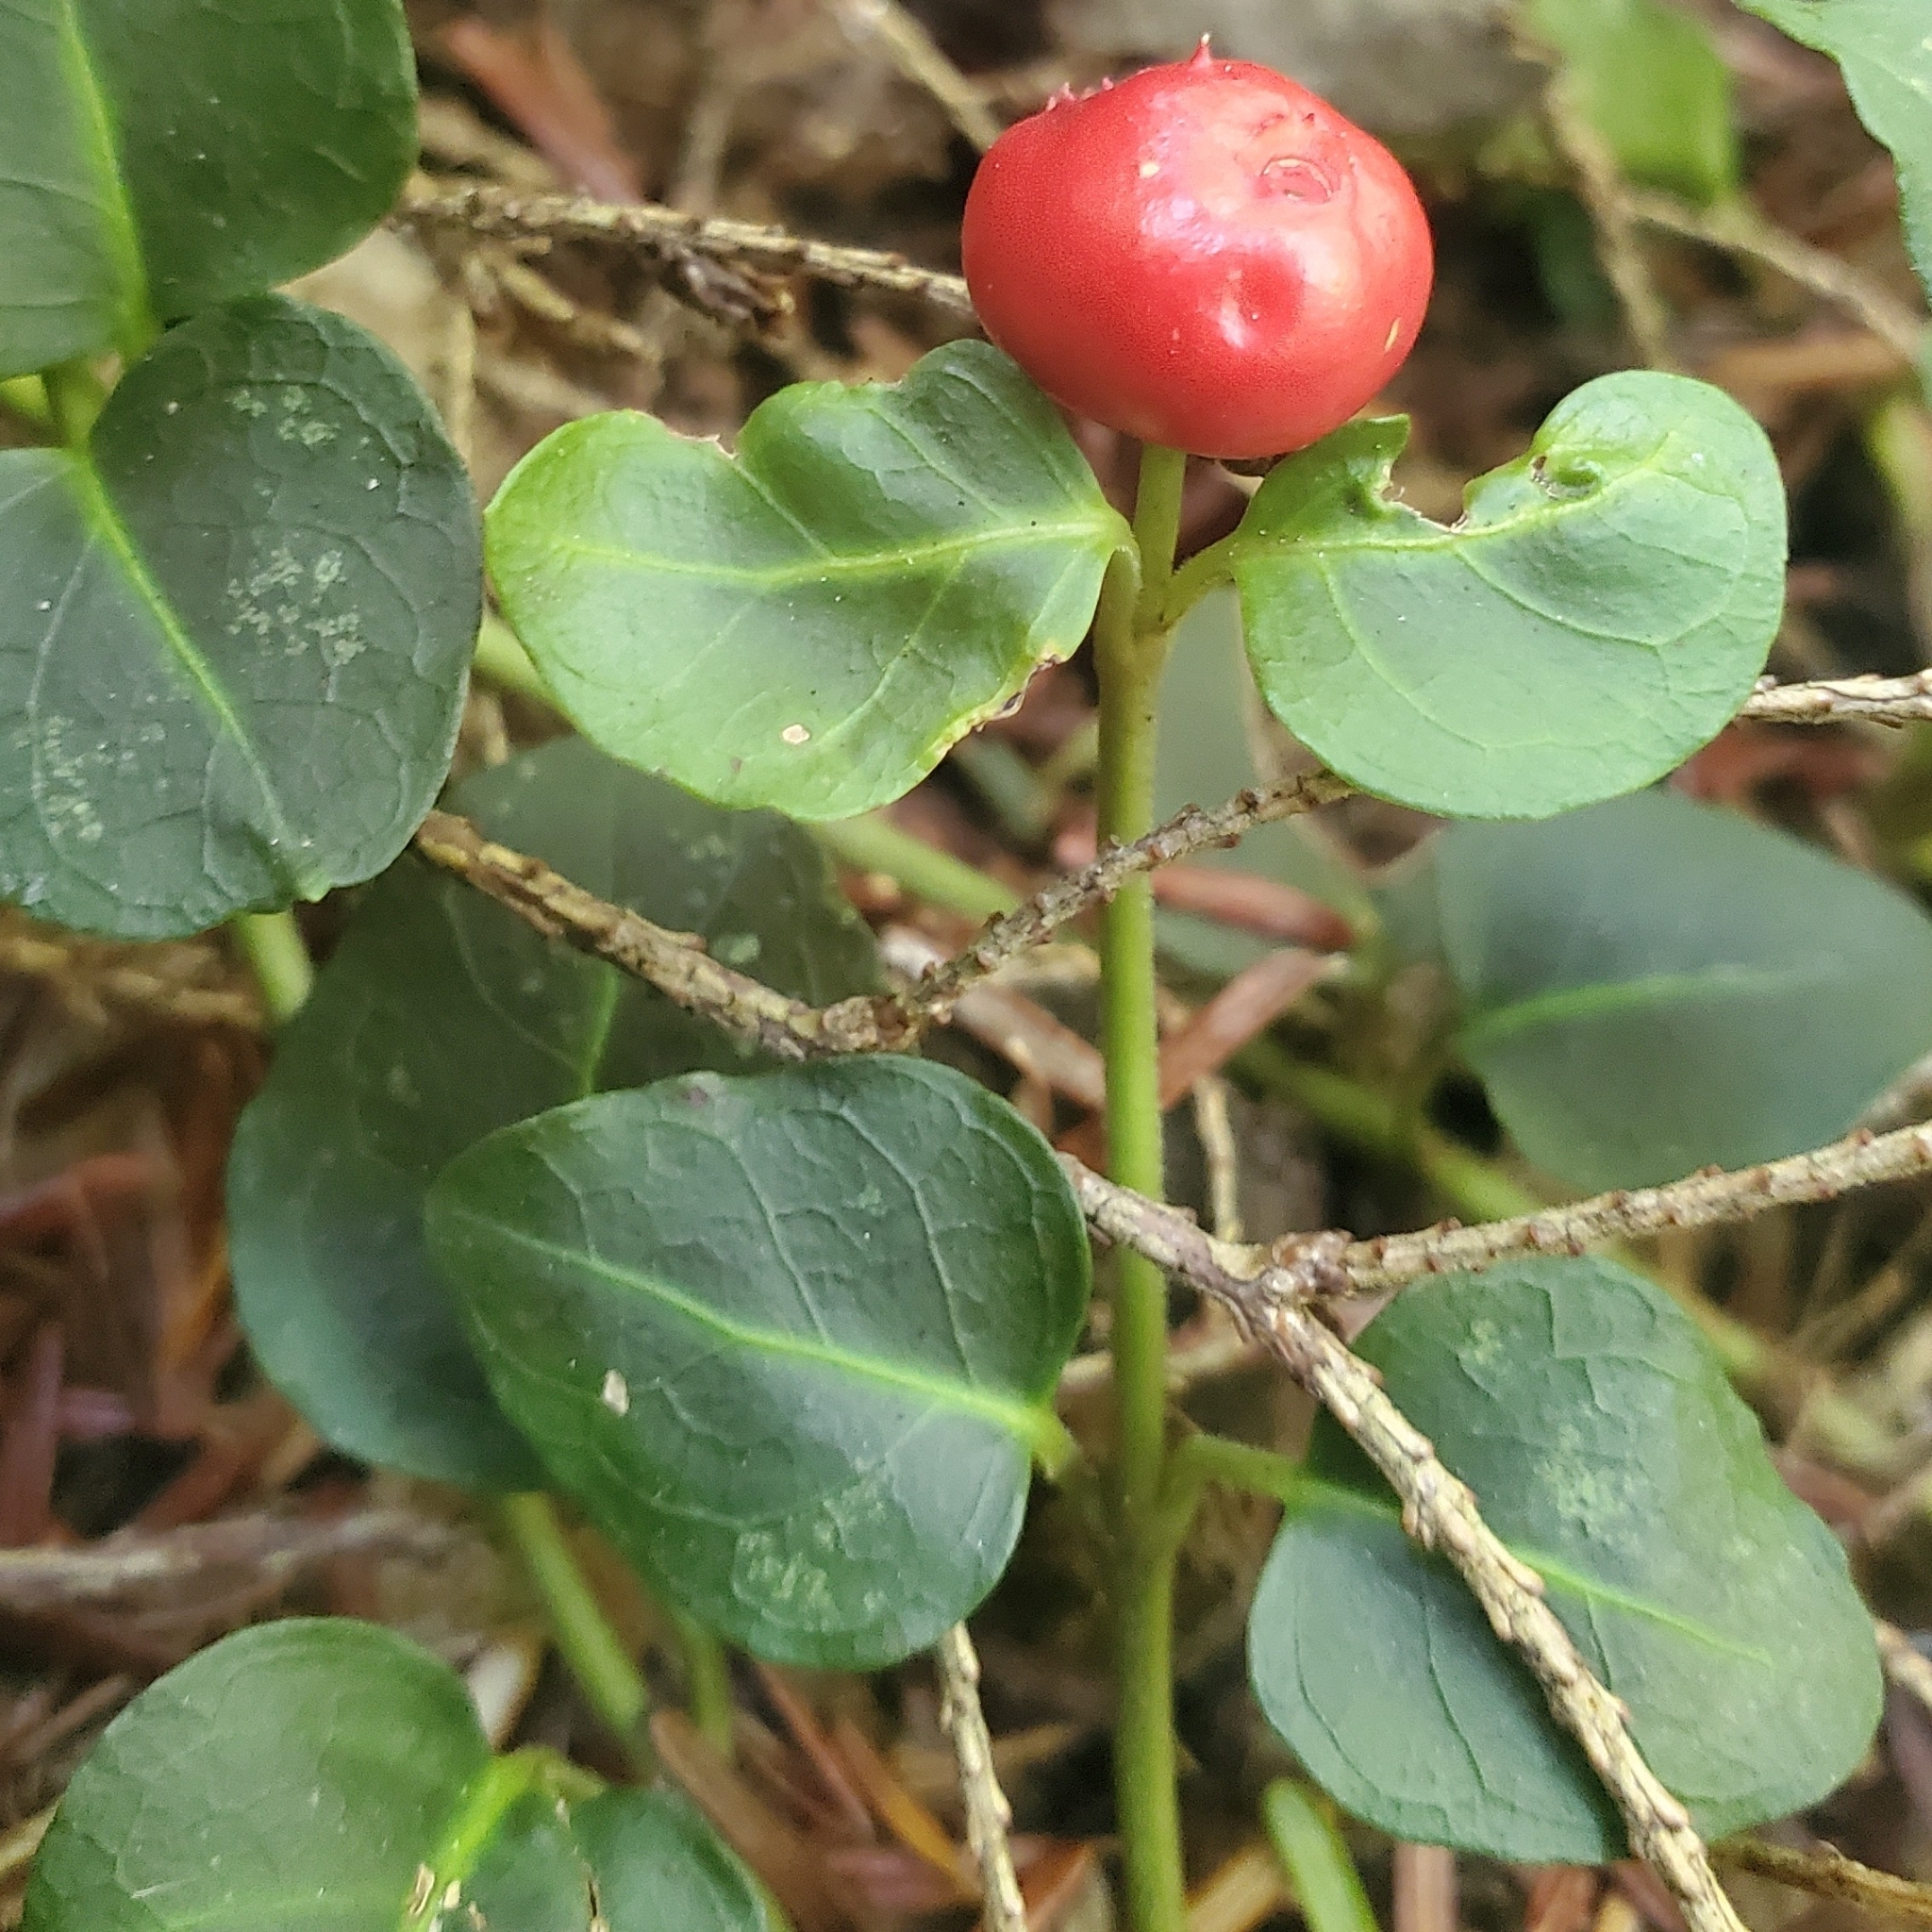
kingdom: Plantae
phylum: Tracheophyta
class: Magnoliopsida
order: Gentianales
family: Rubiaceae
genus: Mitchella
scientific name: Mitchella repens
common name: Partridge-berry
